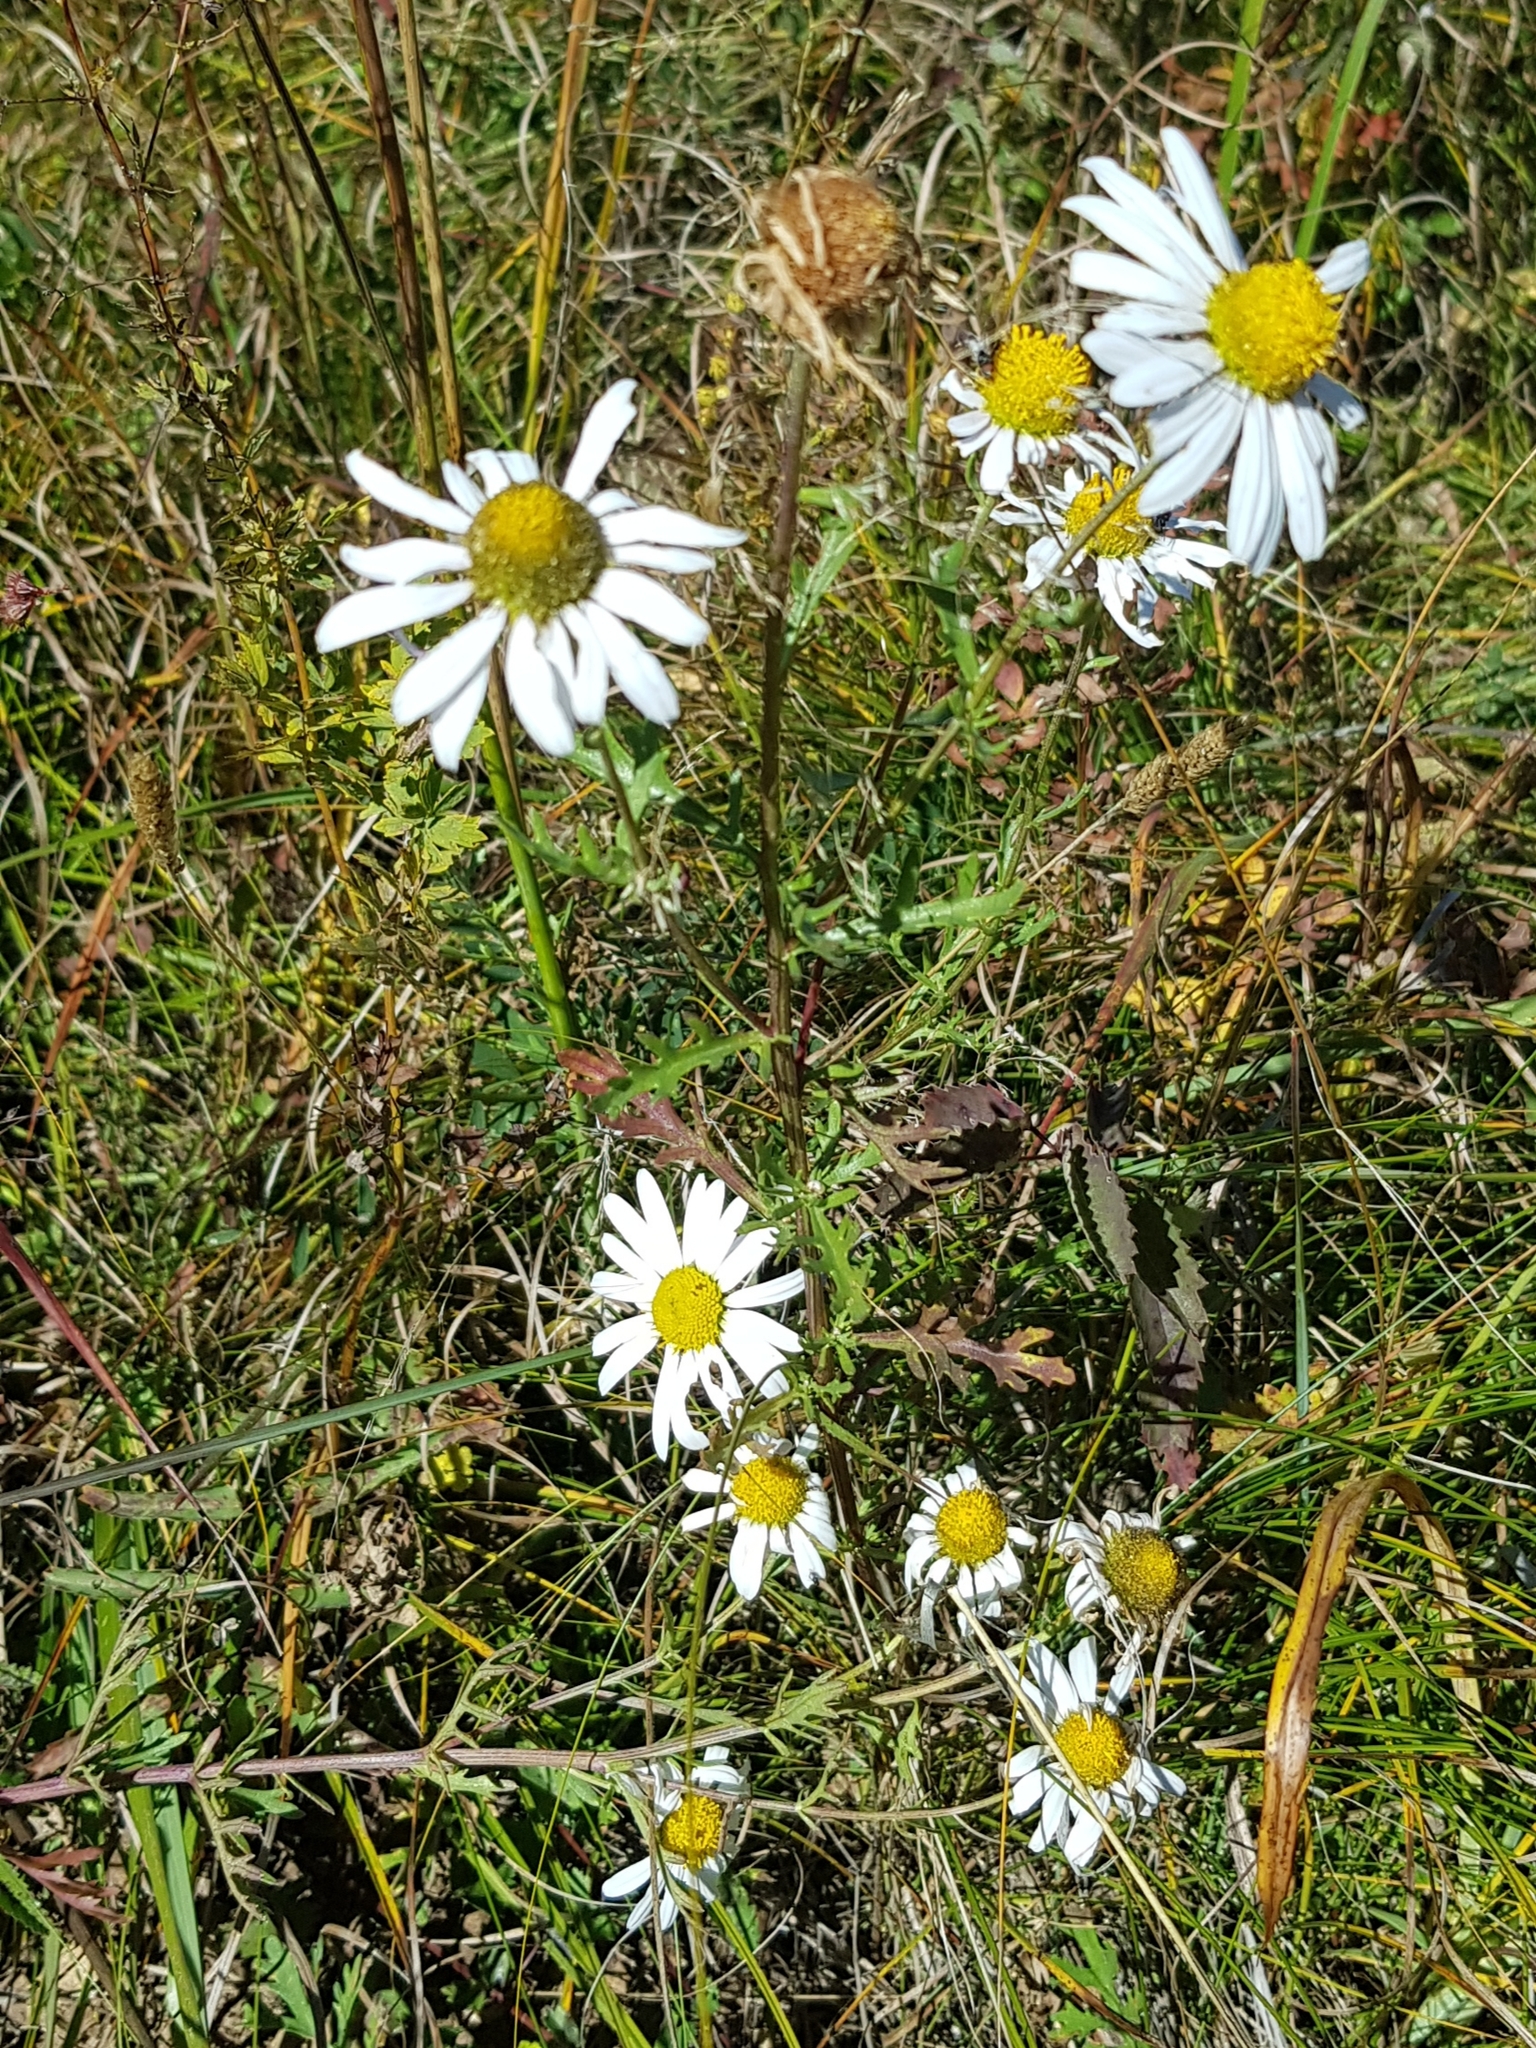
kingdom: Plantae
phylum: Tracheophyta
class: Magnoliopsida
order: Asterales
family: Asteraceae
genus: Chrysanthemum
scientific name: Chrysanthemum zawadzkii
